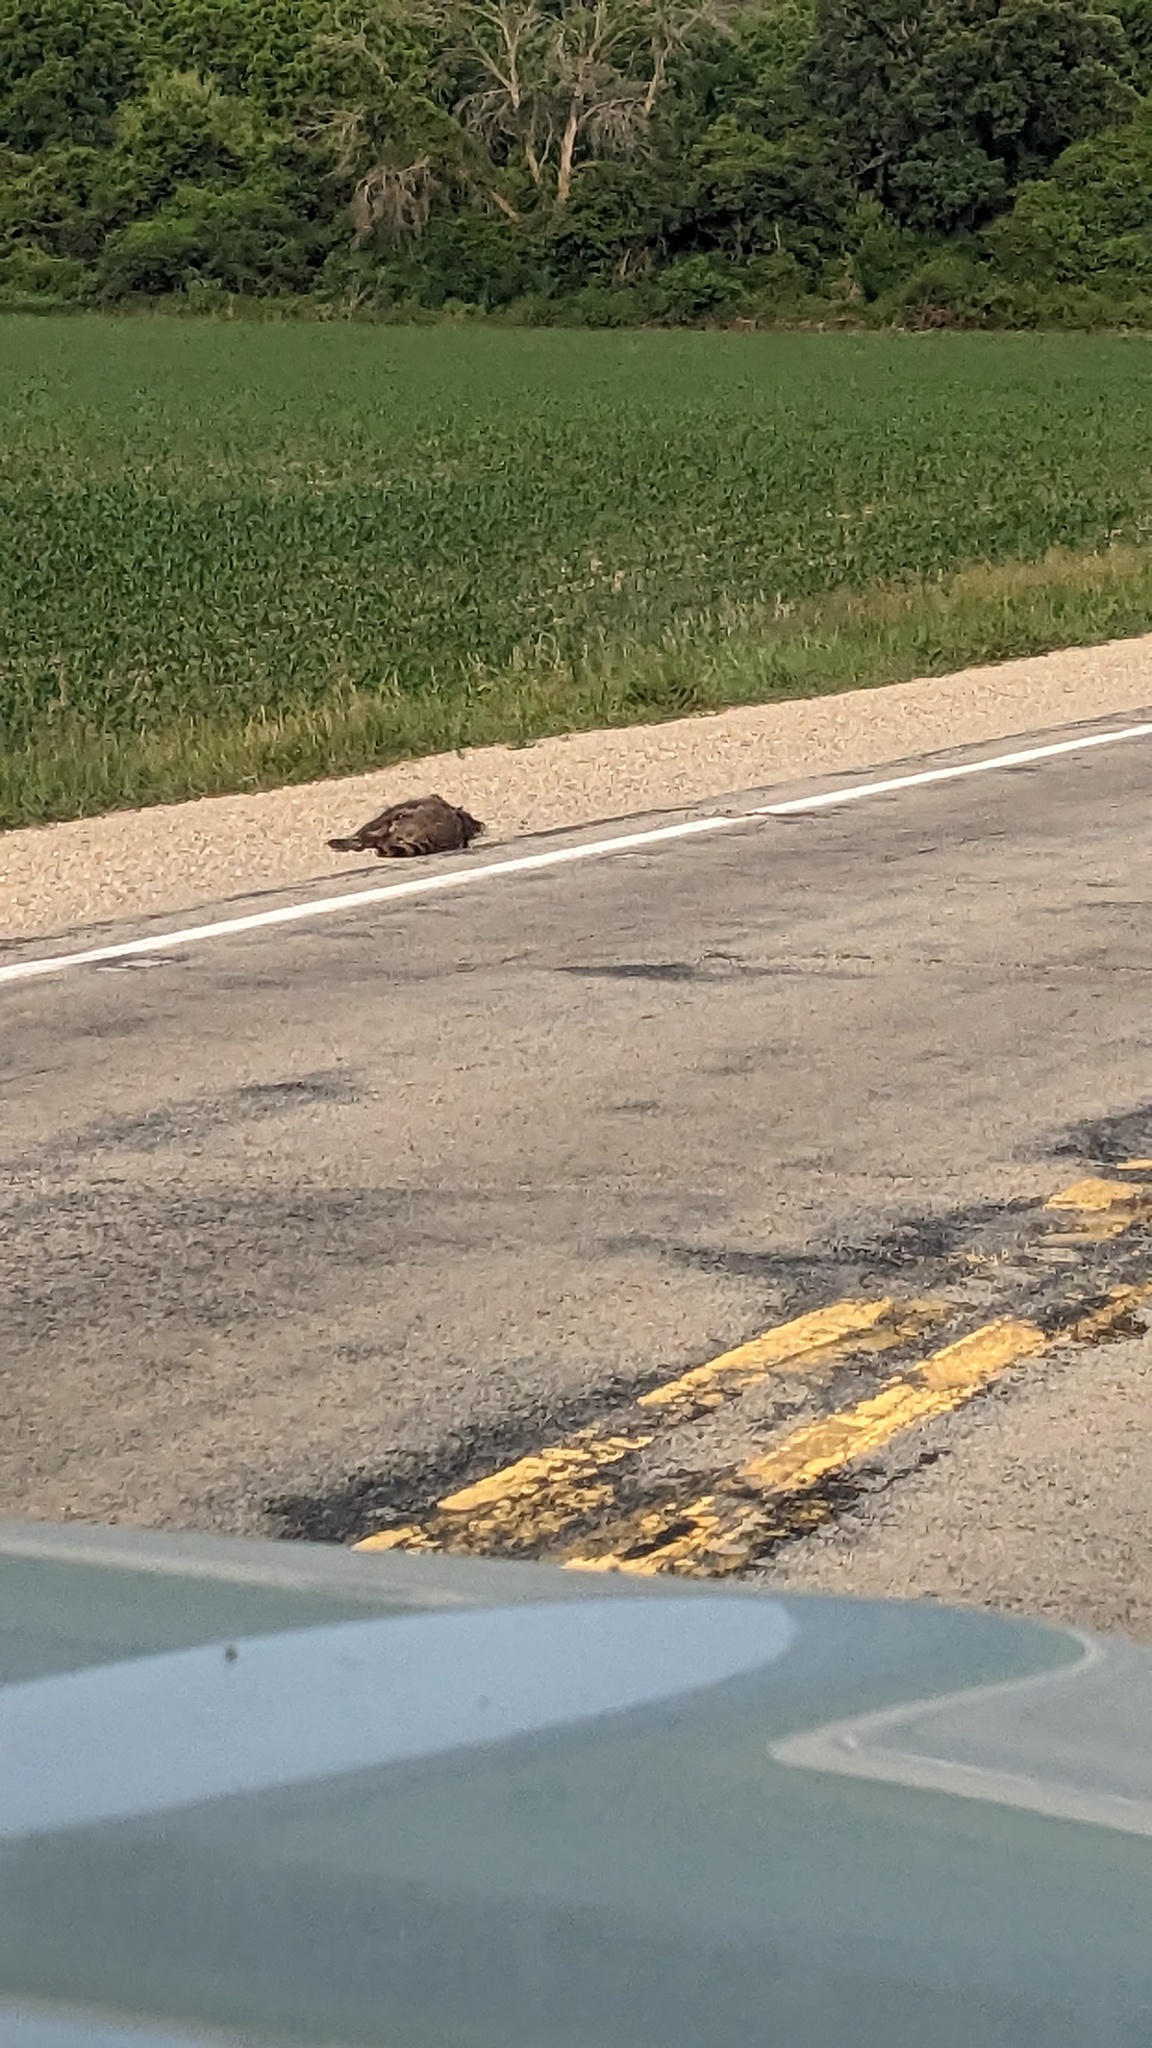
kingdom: Animalia
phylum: Chordata
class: Mammalia
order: Carnivora
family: Procyonidae
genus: Procyon
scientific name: Procyon lotor
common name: Raccoon
